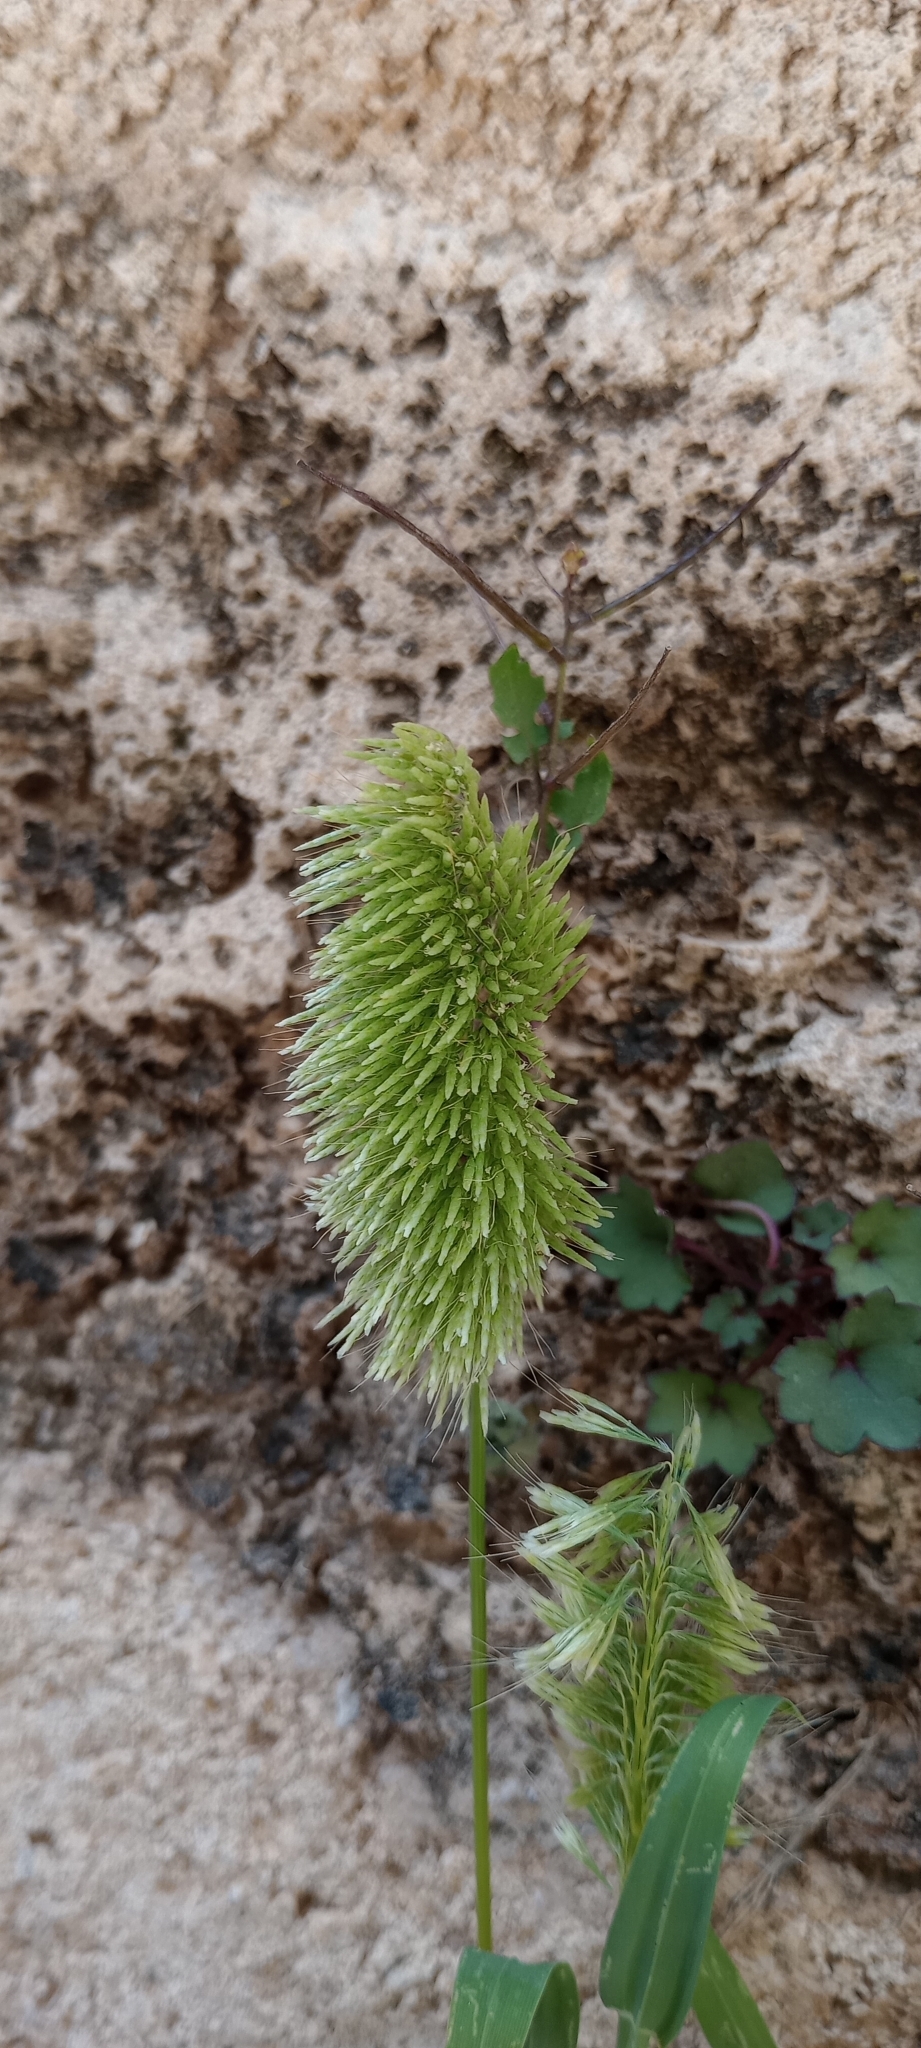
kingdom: Plantae
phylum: Tracheophyta
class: Liliopsida
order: Poales
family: Poaceae
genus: Lamarckia
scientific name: Lamarckia aurea
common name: Golden dog's-tail
